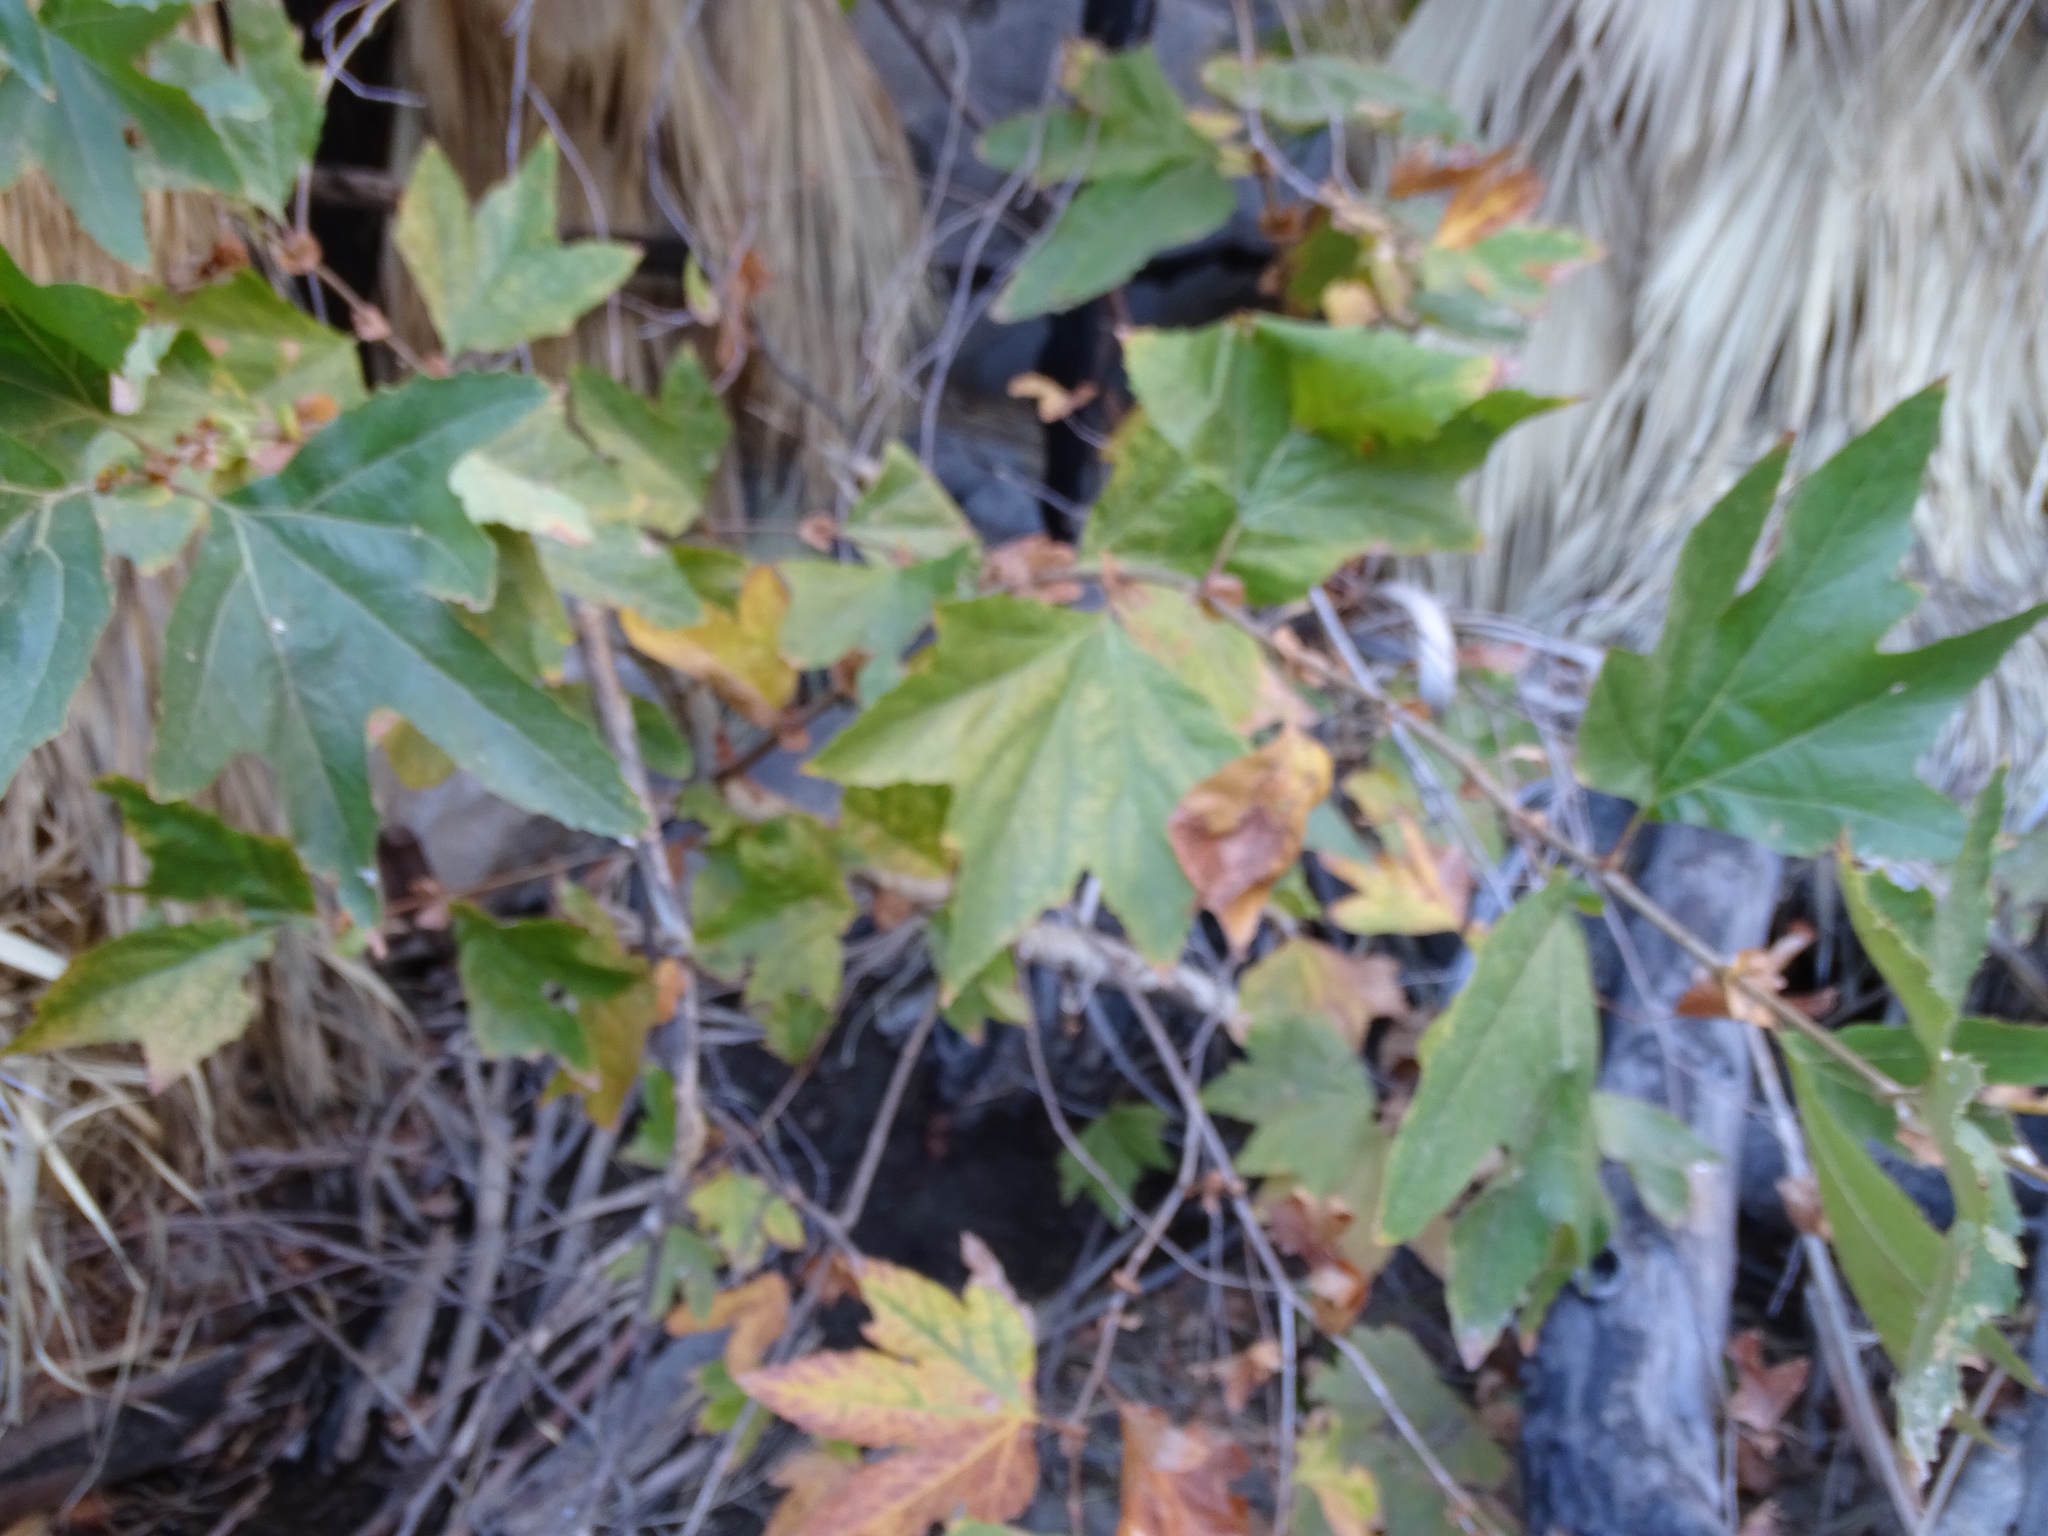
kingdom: Plantae
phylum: Tracheophyta
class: Magnoliopsida
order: Proteales
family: Platanaceae
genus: Platanus
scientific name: Platanus racemosa
